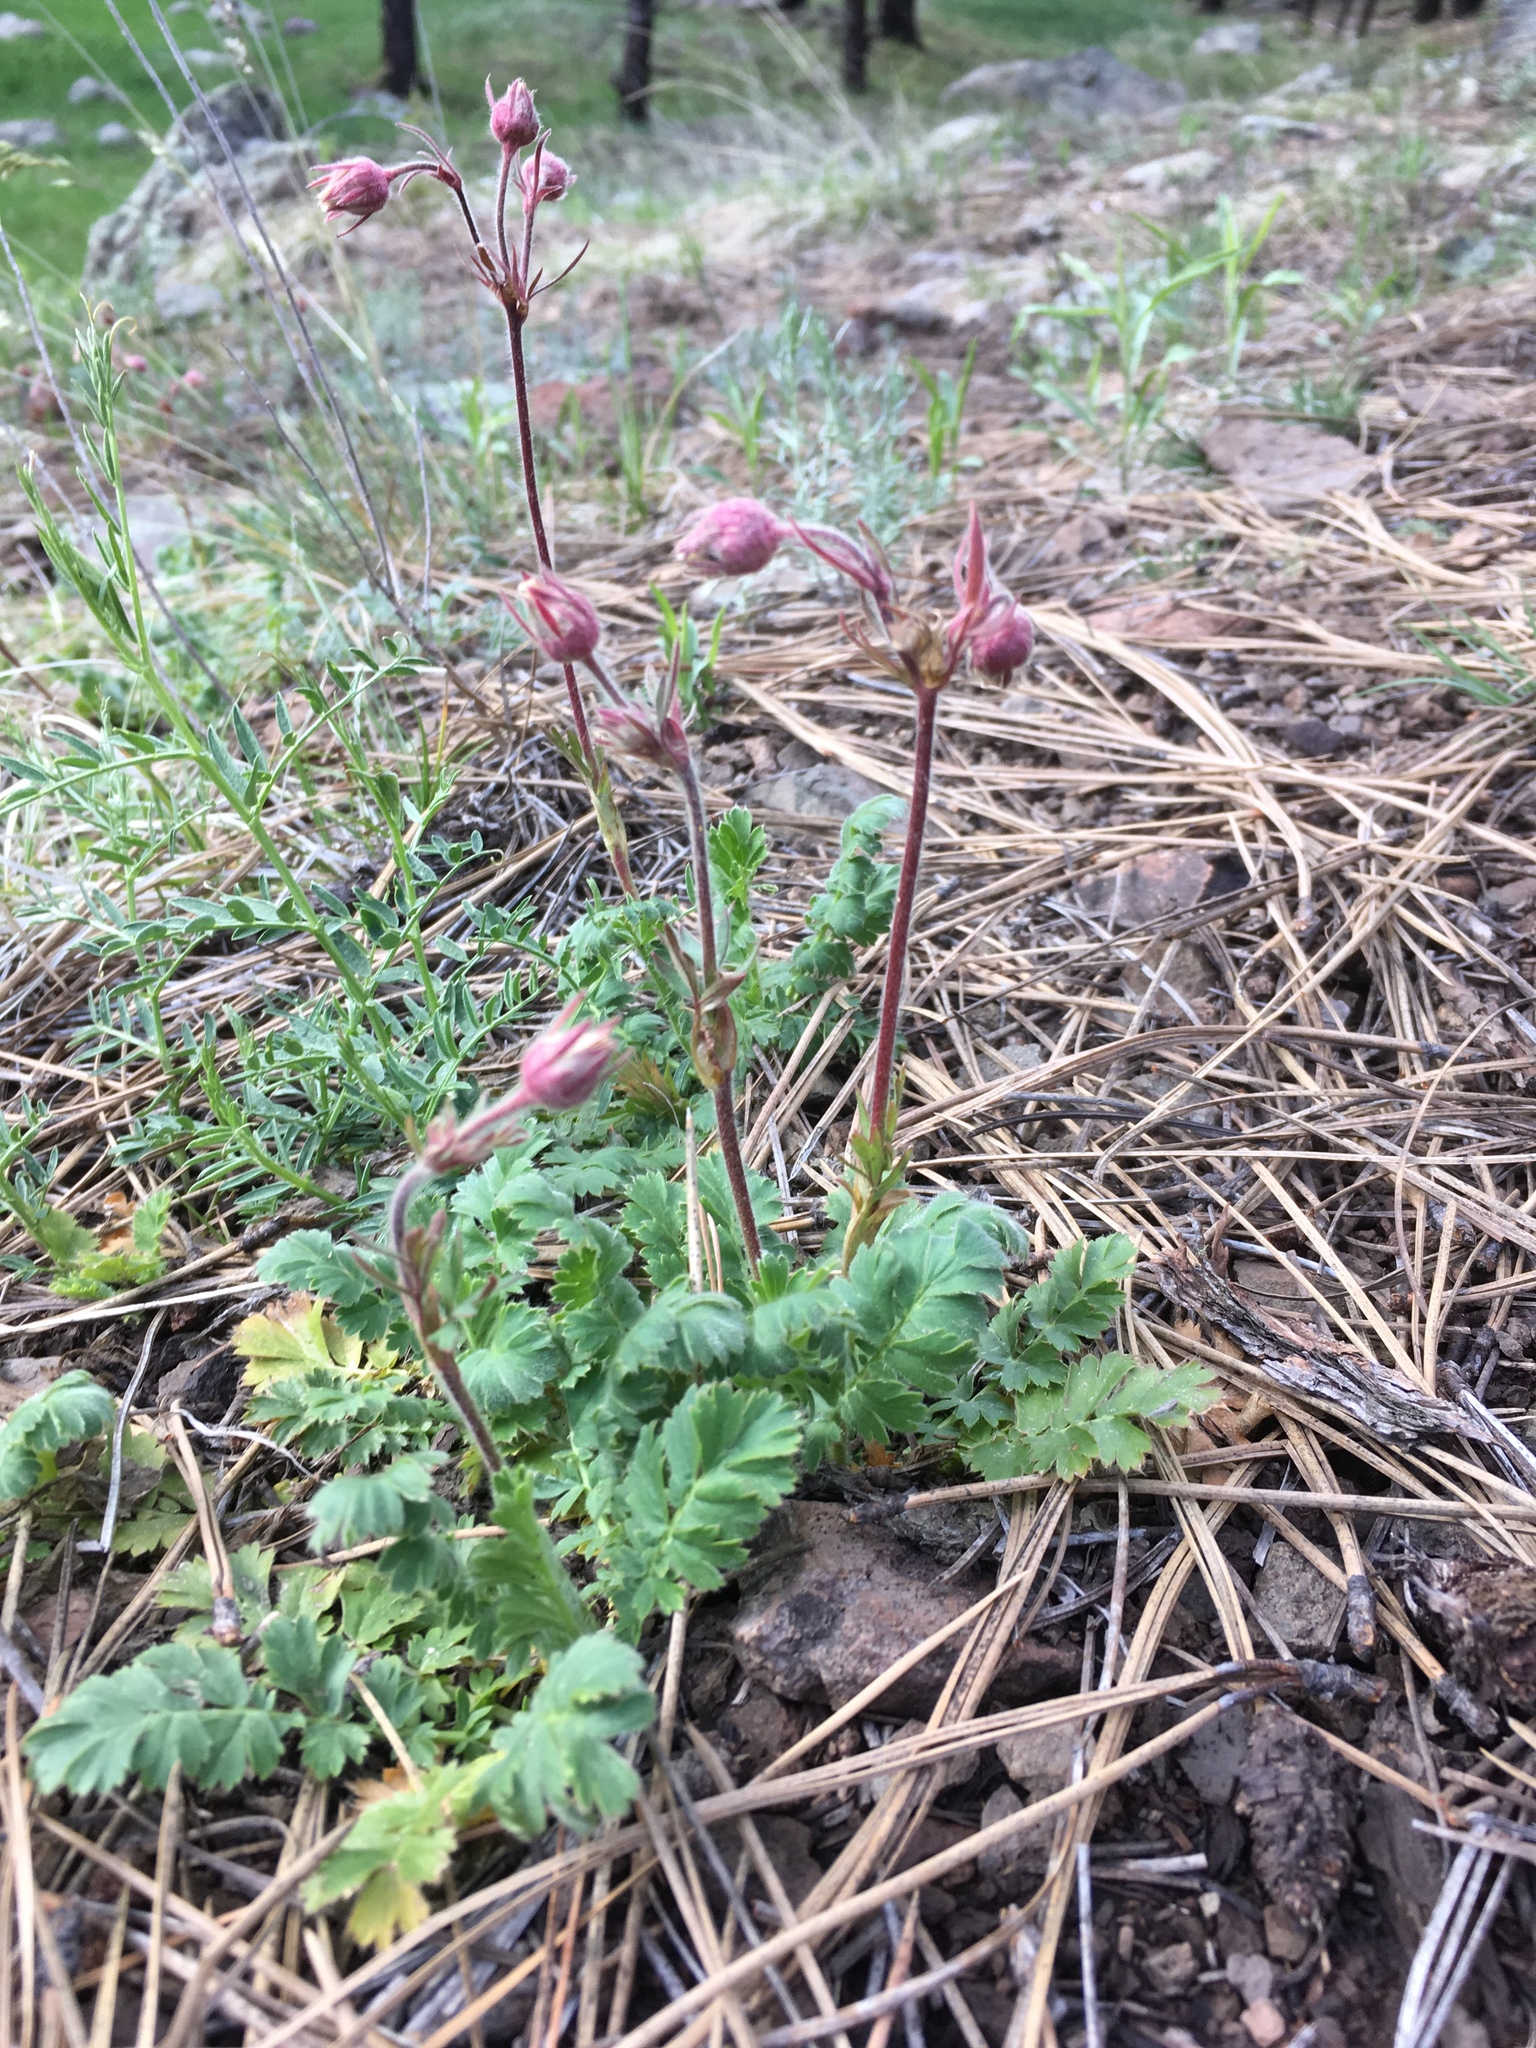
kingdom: Plantae
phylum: Tracheophyta
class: Magnoliopsida
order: Rosales
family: Rosaceae
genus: Geum
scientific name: Geum triflorum
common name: Old man's whiskers
